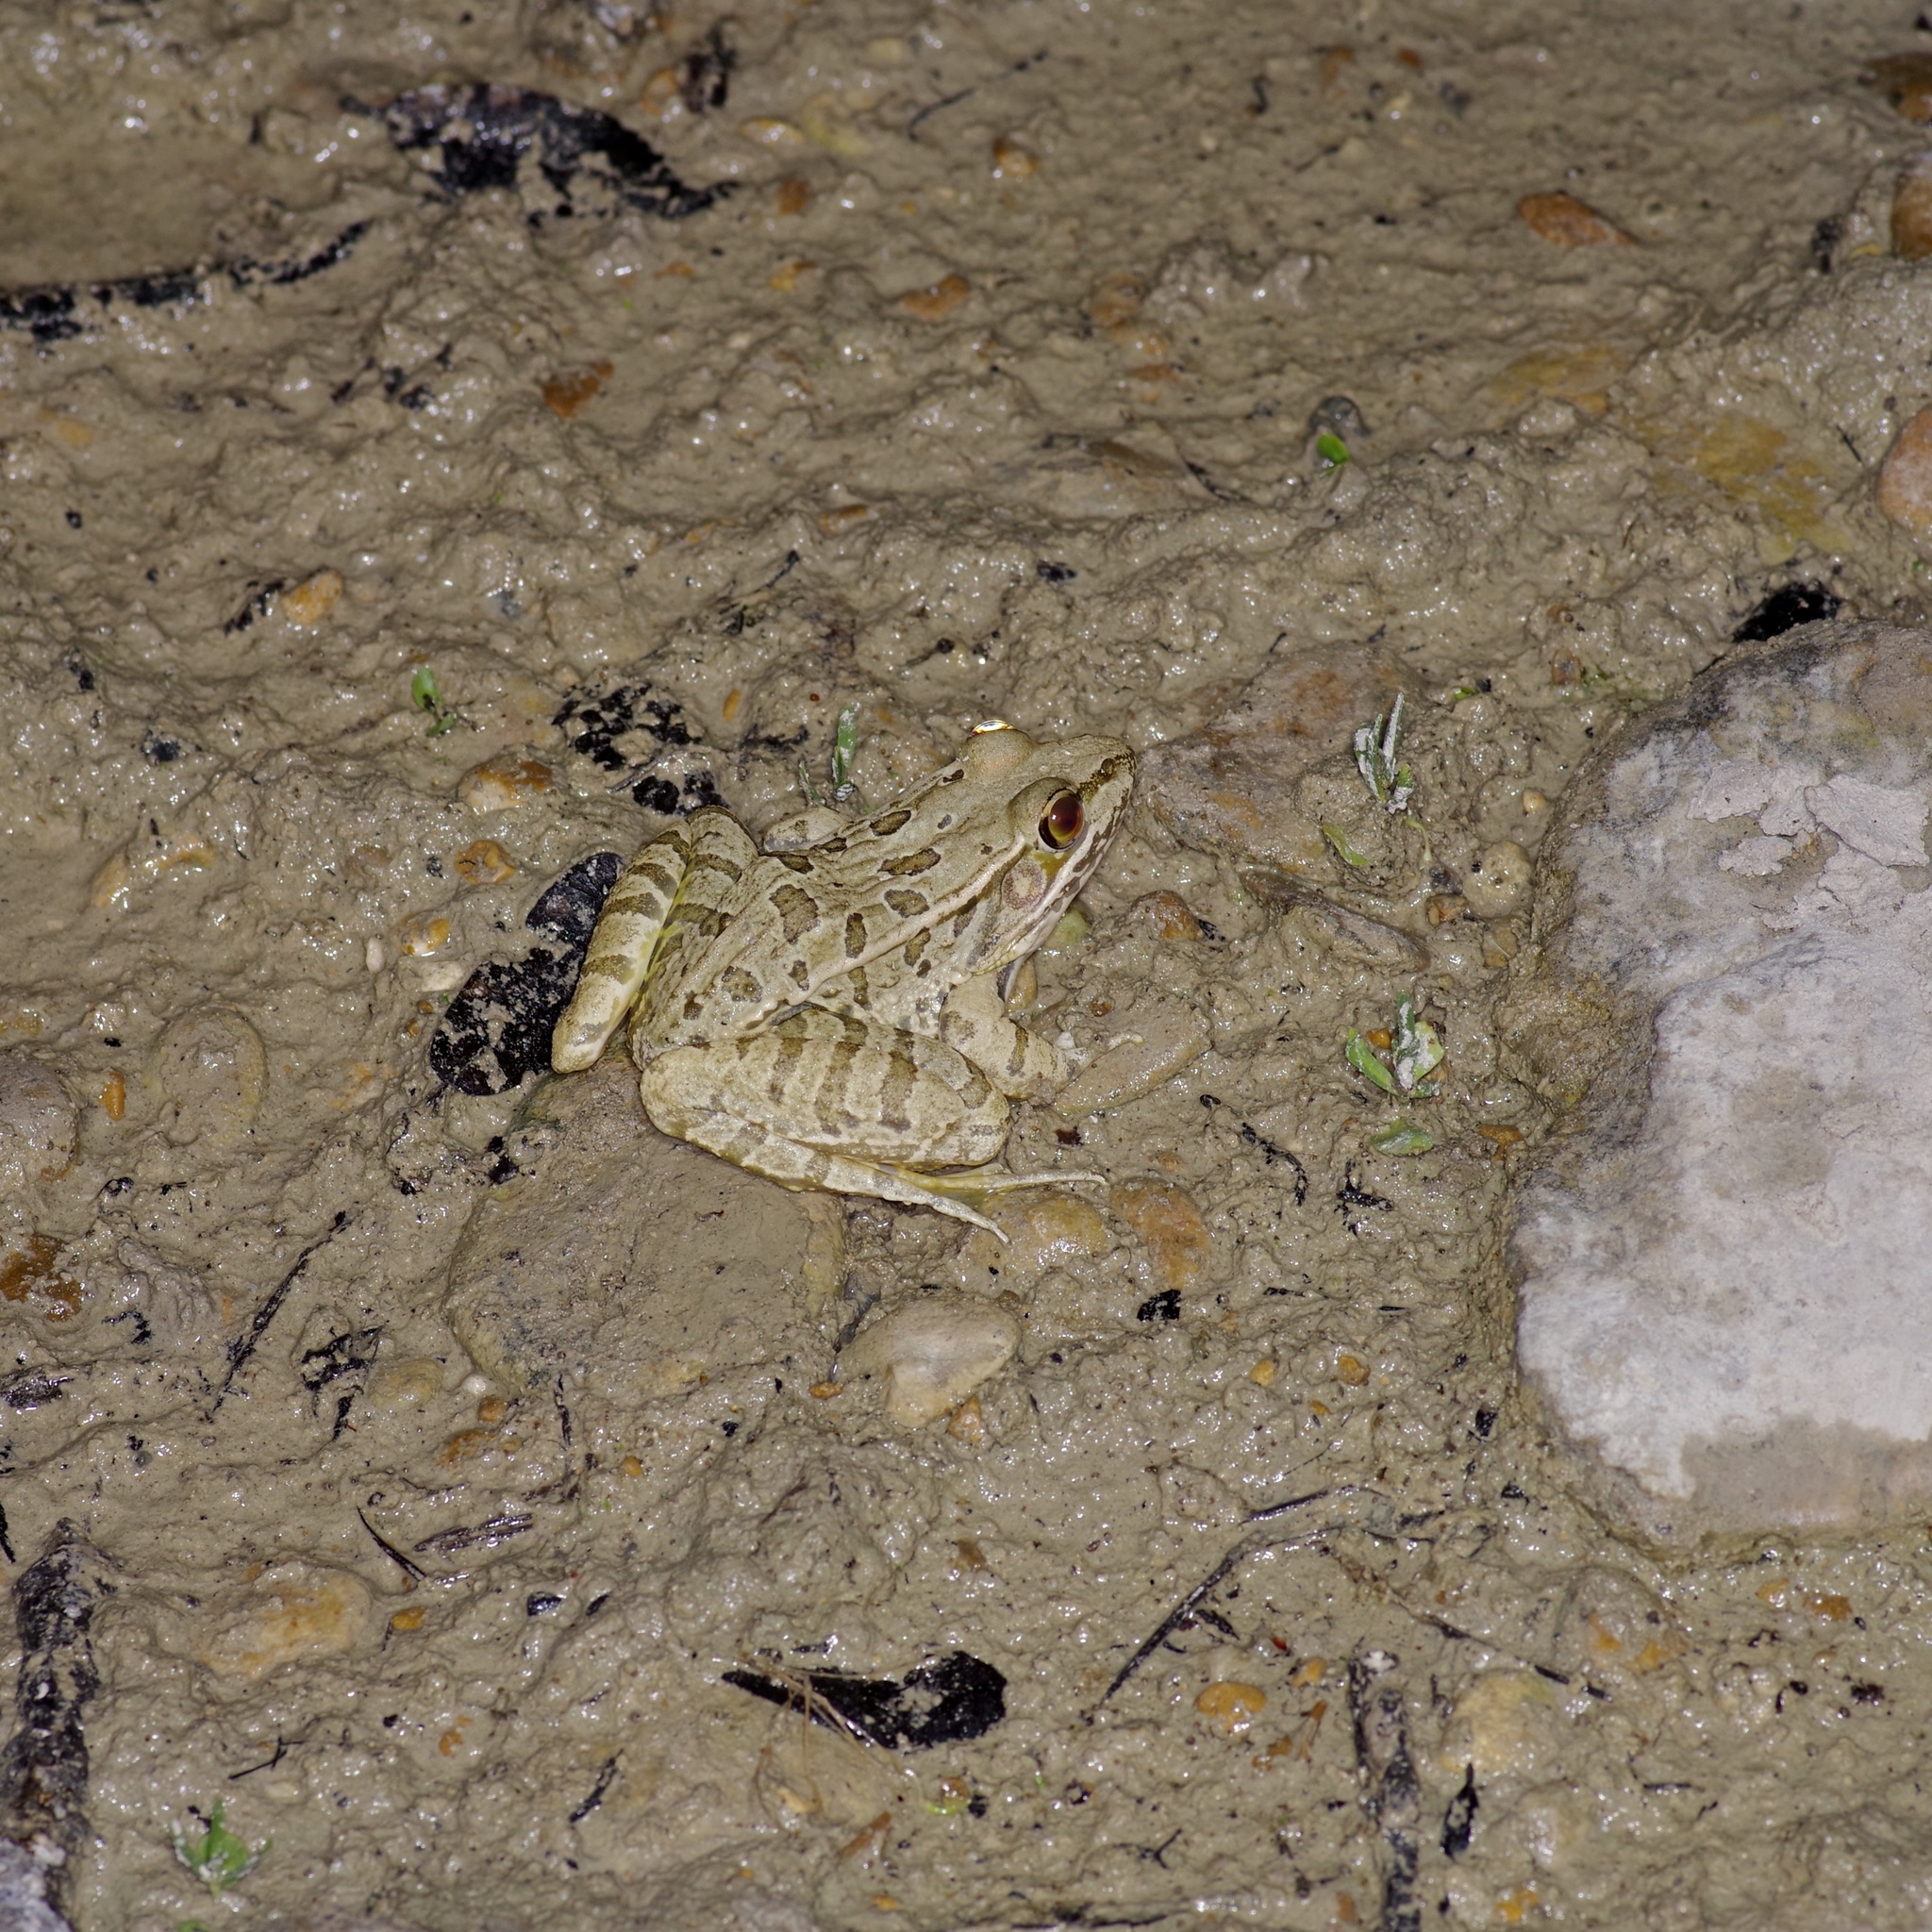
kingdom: Animalia
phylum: Chordata
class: Amphibia
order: Anura
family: Ranidae
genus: Lithobates
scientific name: Lithobates berlandieri
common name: Rio grande leopard frog
